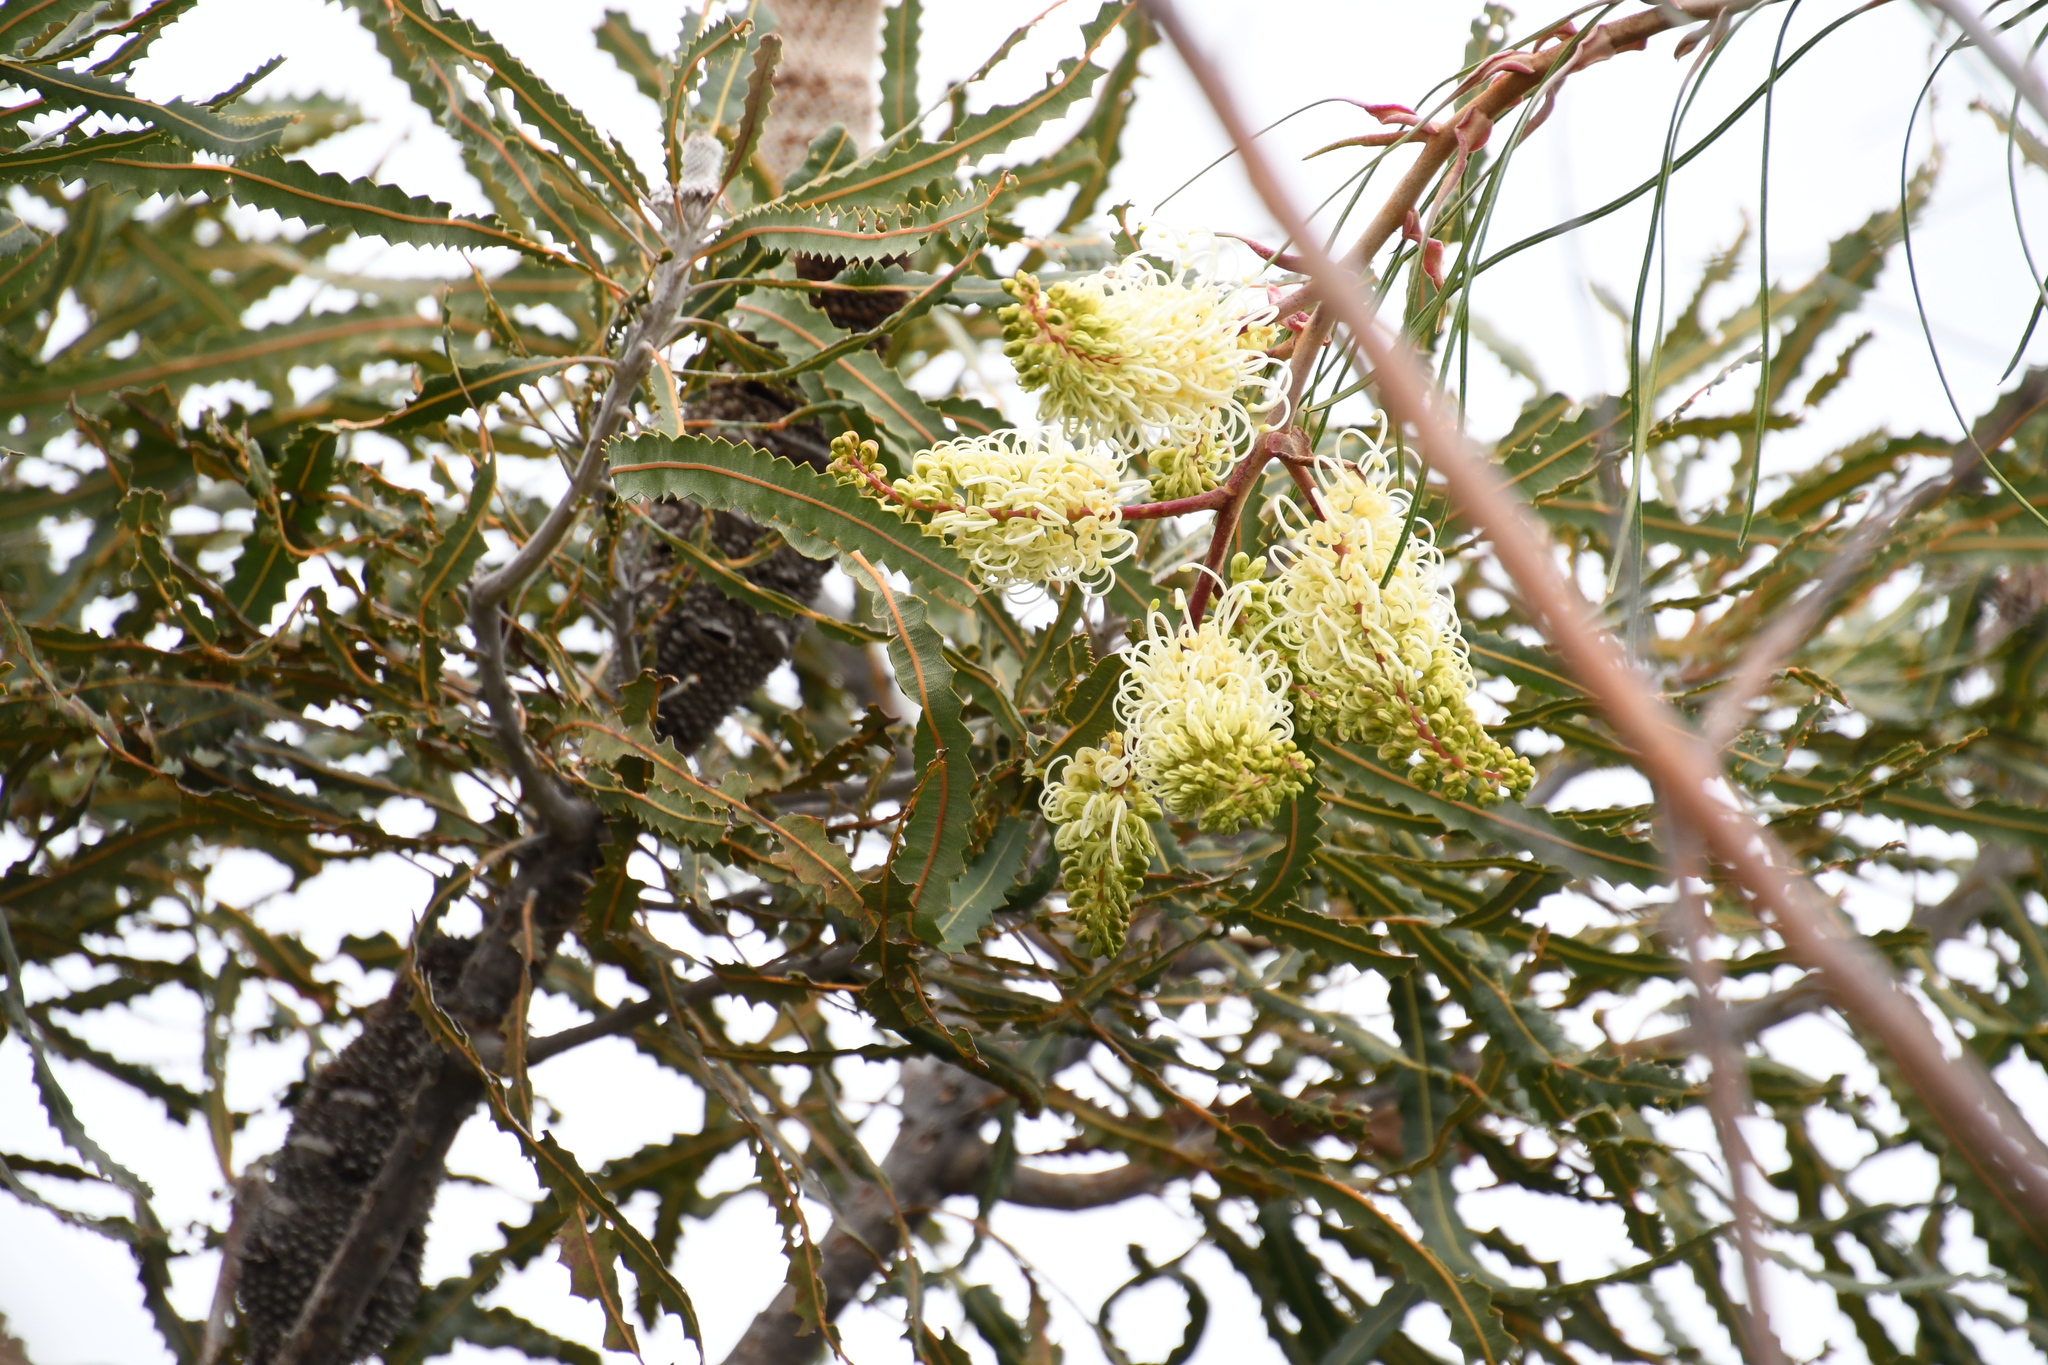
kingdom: Plantae
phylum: Tracheophyta
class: Magnoliopsida
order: Proteales
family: Proteaceae
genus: Grevillea
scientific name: Grevillea leucopteris
